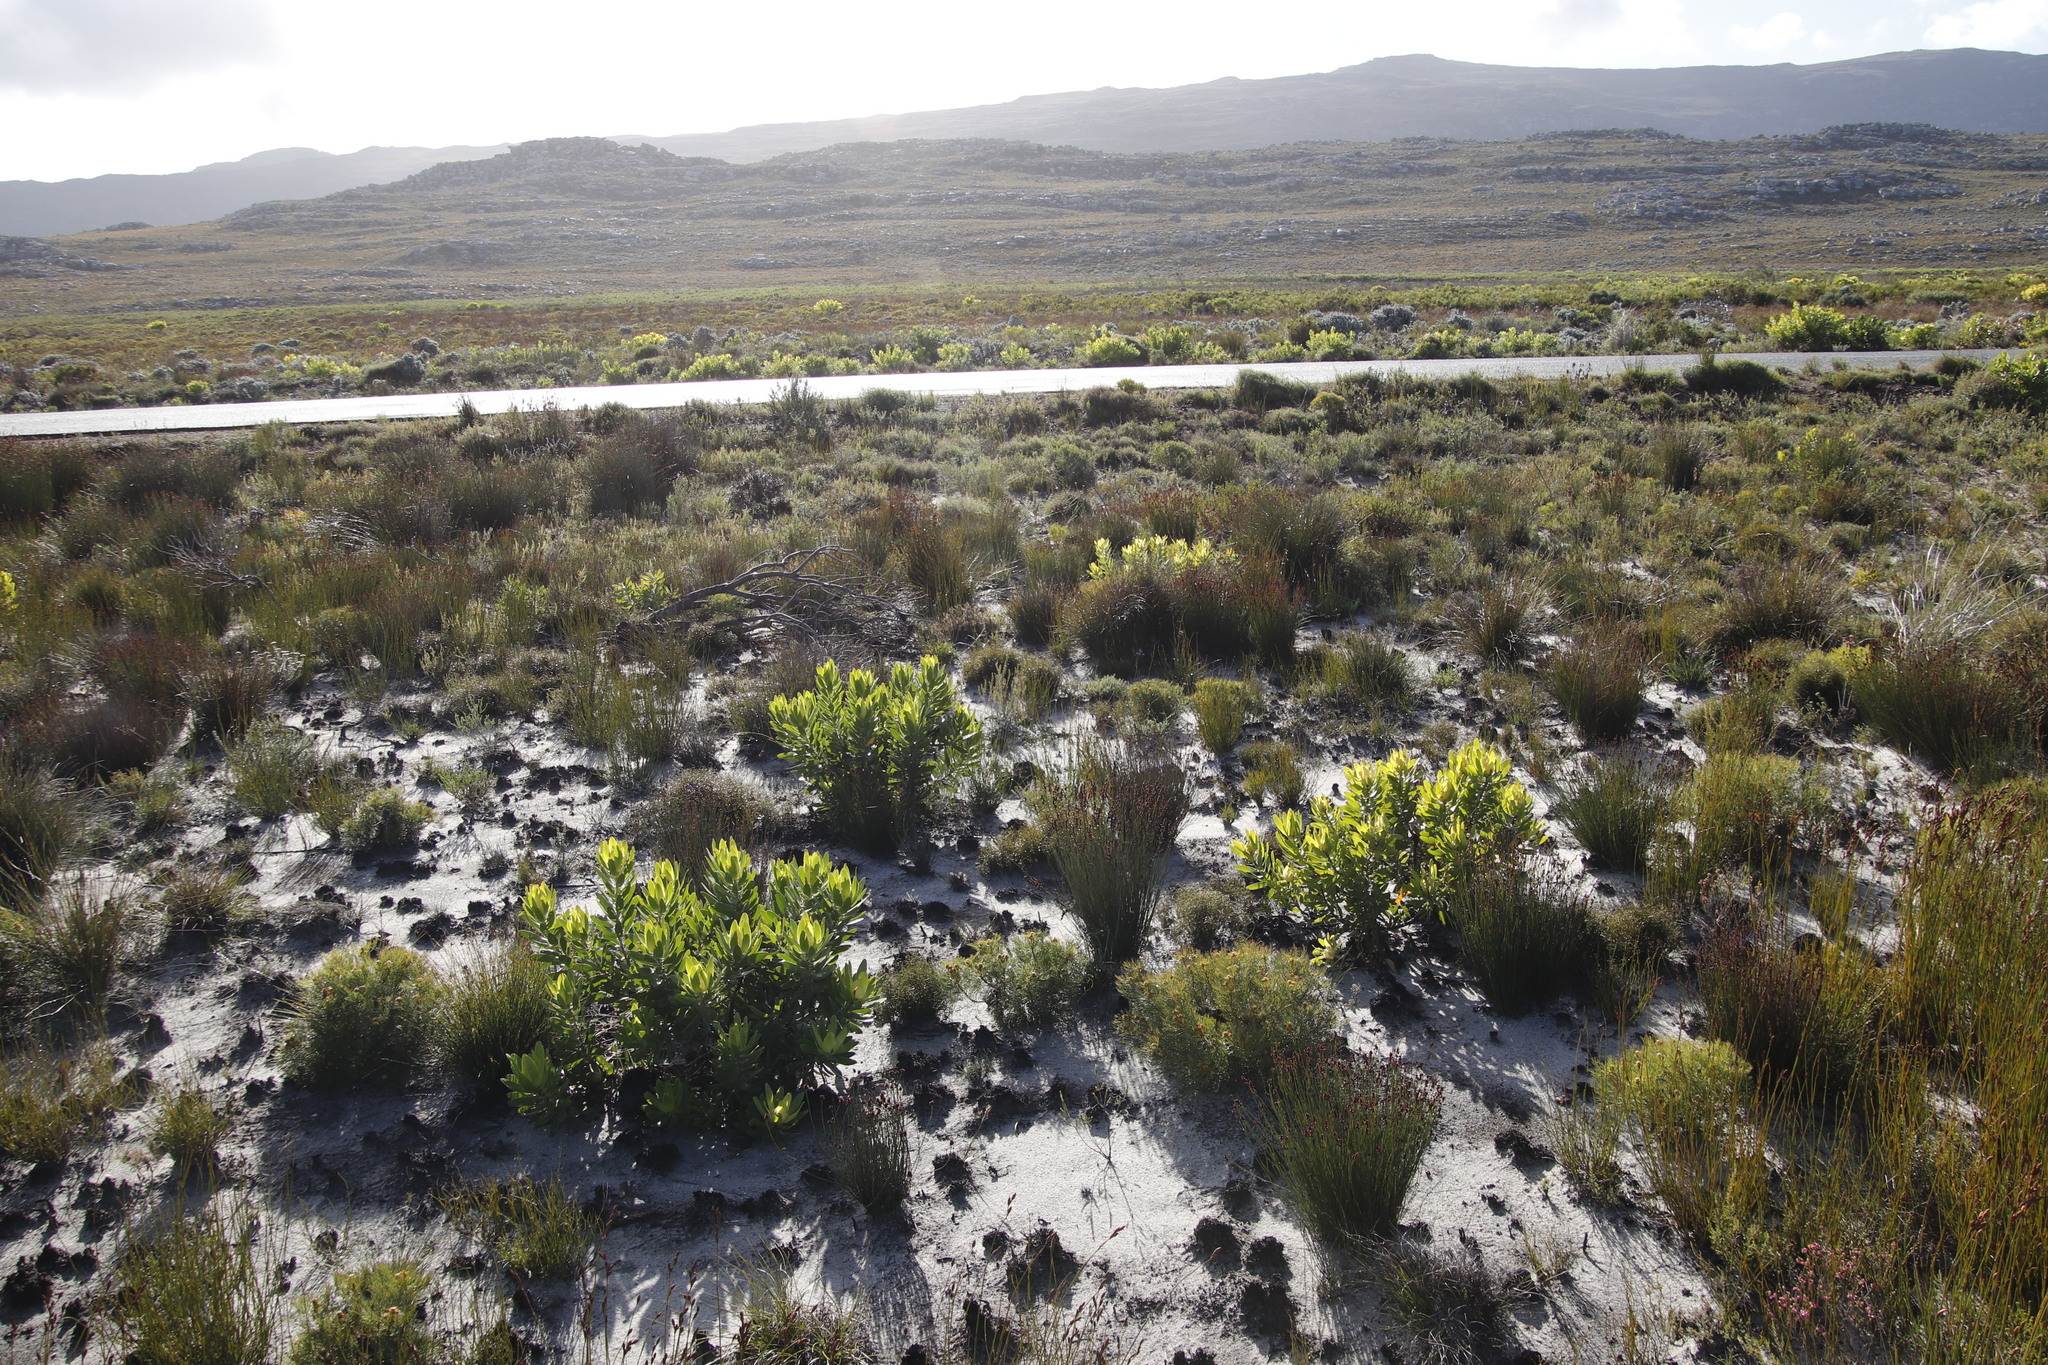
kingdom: Plantae
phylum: Tracheophyta
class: Magnoliopsida
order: Proteales
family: Proteaceae
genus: Leucadendron
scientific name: Leucadendron laureolum
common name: Golden sunshinebush
